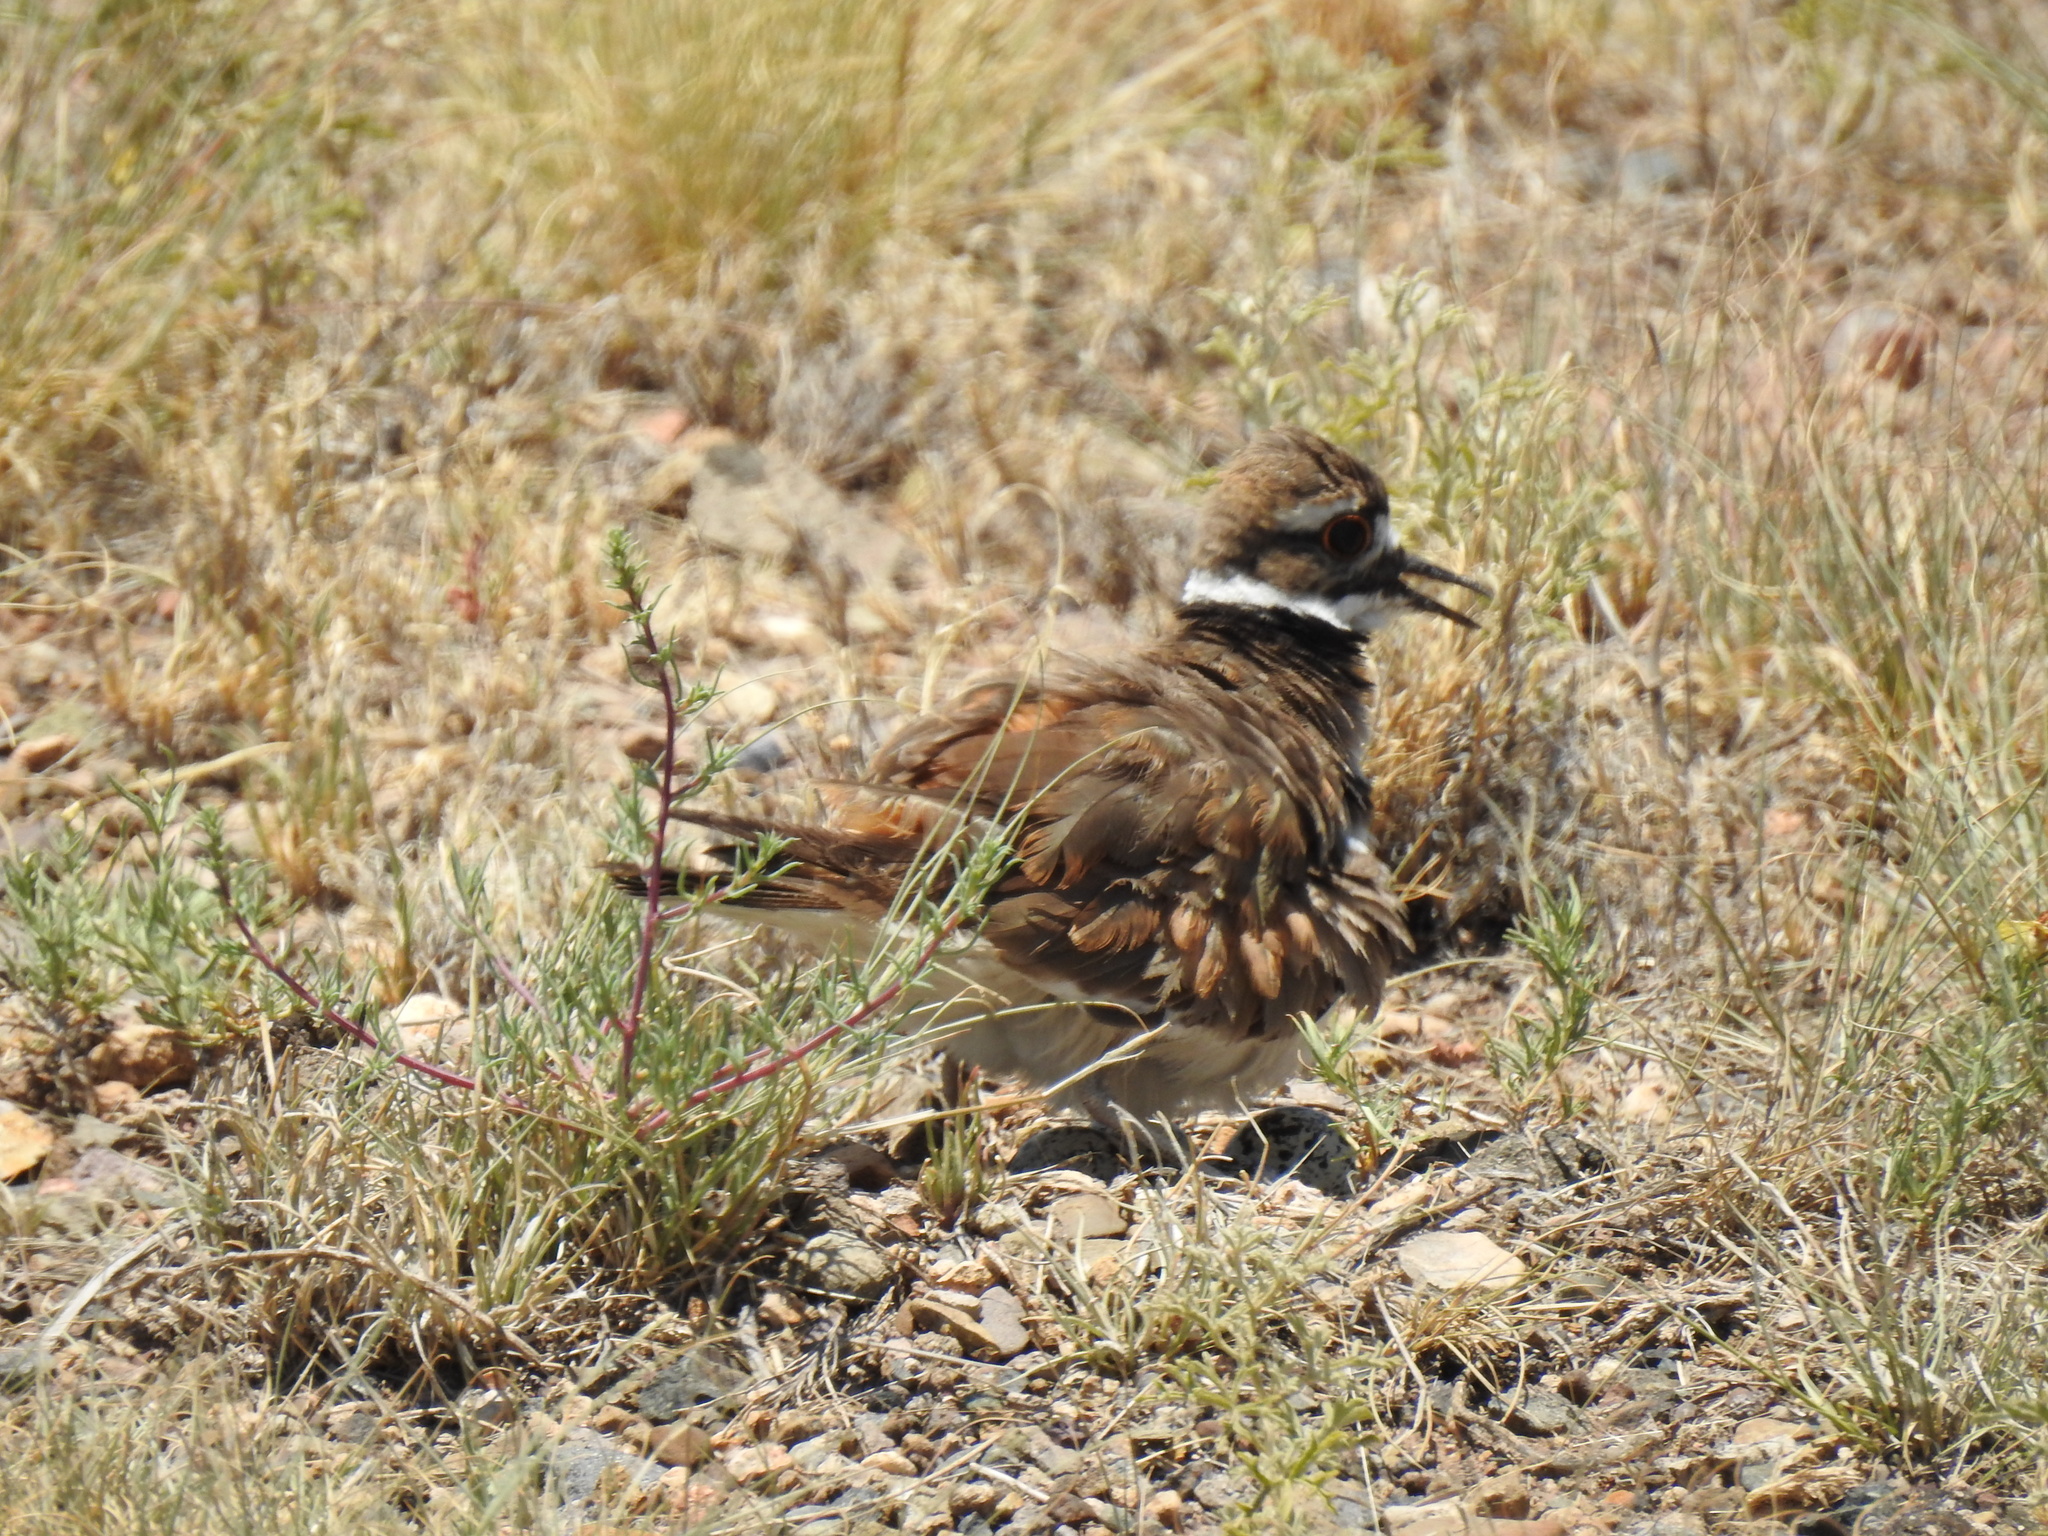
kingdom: Animalia
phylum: Chordata
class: Aves
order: Charadriiformes
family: Charadriidae
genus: Charadrius
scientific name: Charadrius vociferus
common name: Killdeer
